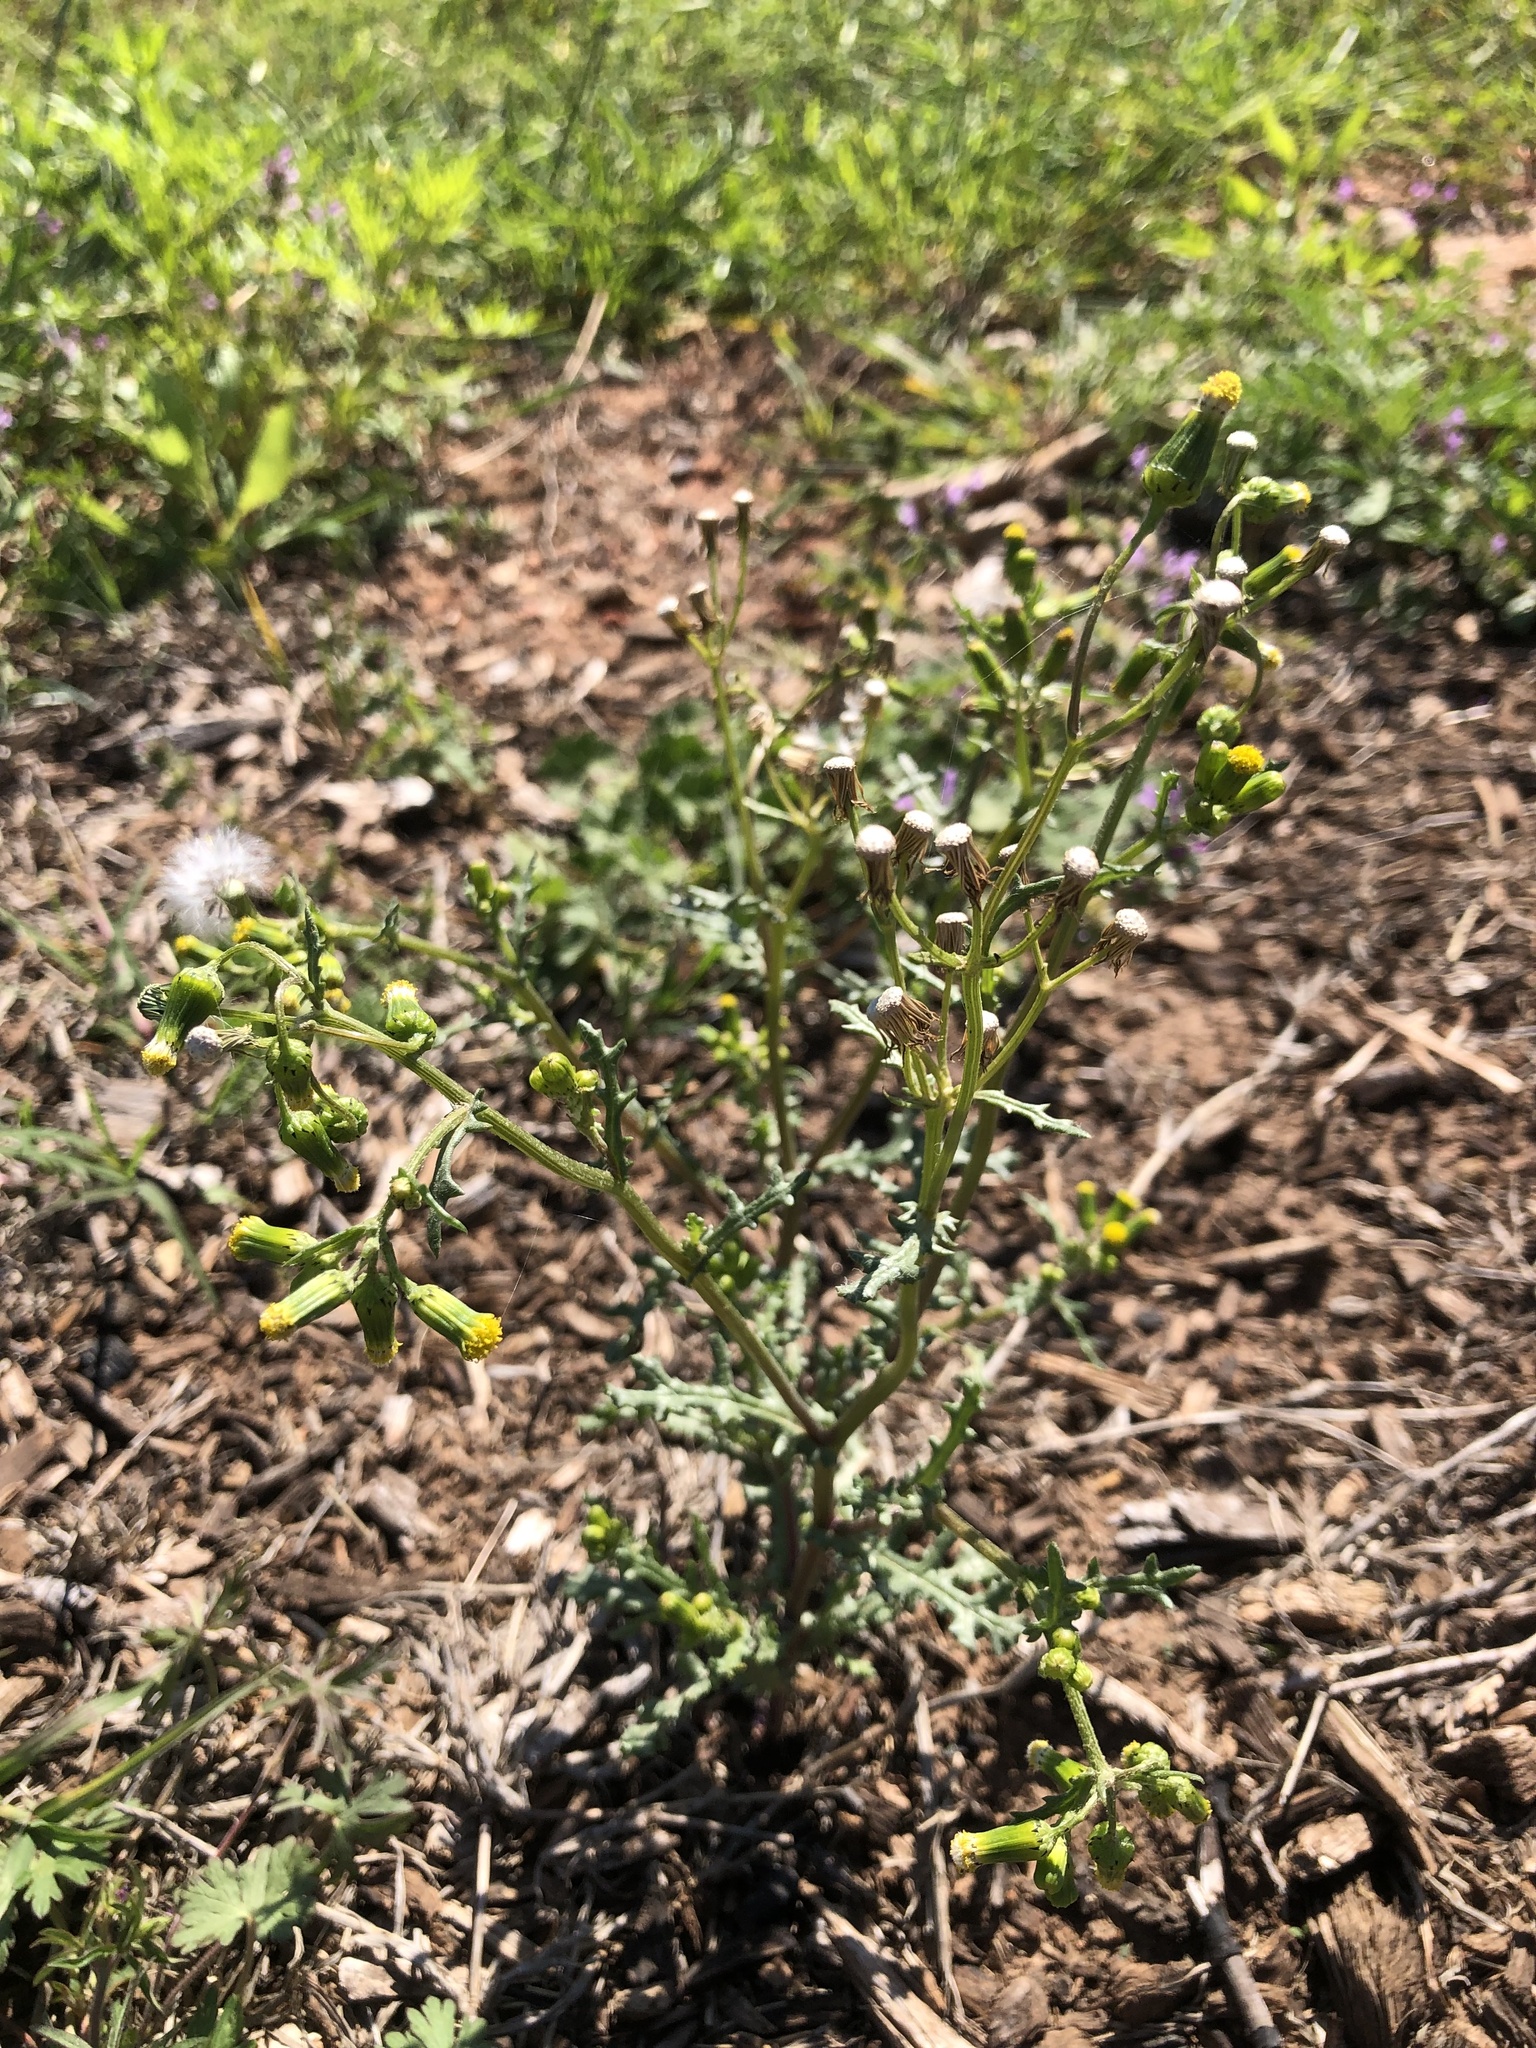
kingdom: Plantae
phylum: Tracheophyta
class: Magnoliopsida
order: Asterales
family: Asteraceae
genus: Senecio
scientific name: Senecio vulgaris
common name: Old-man-in-the-spring
